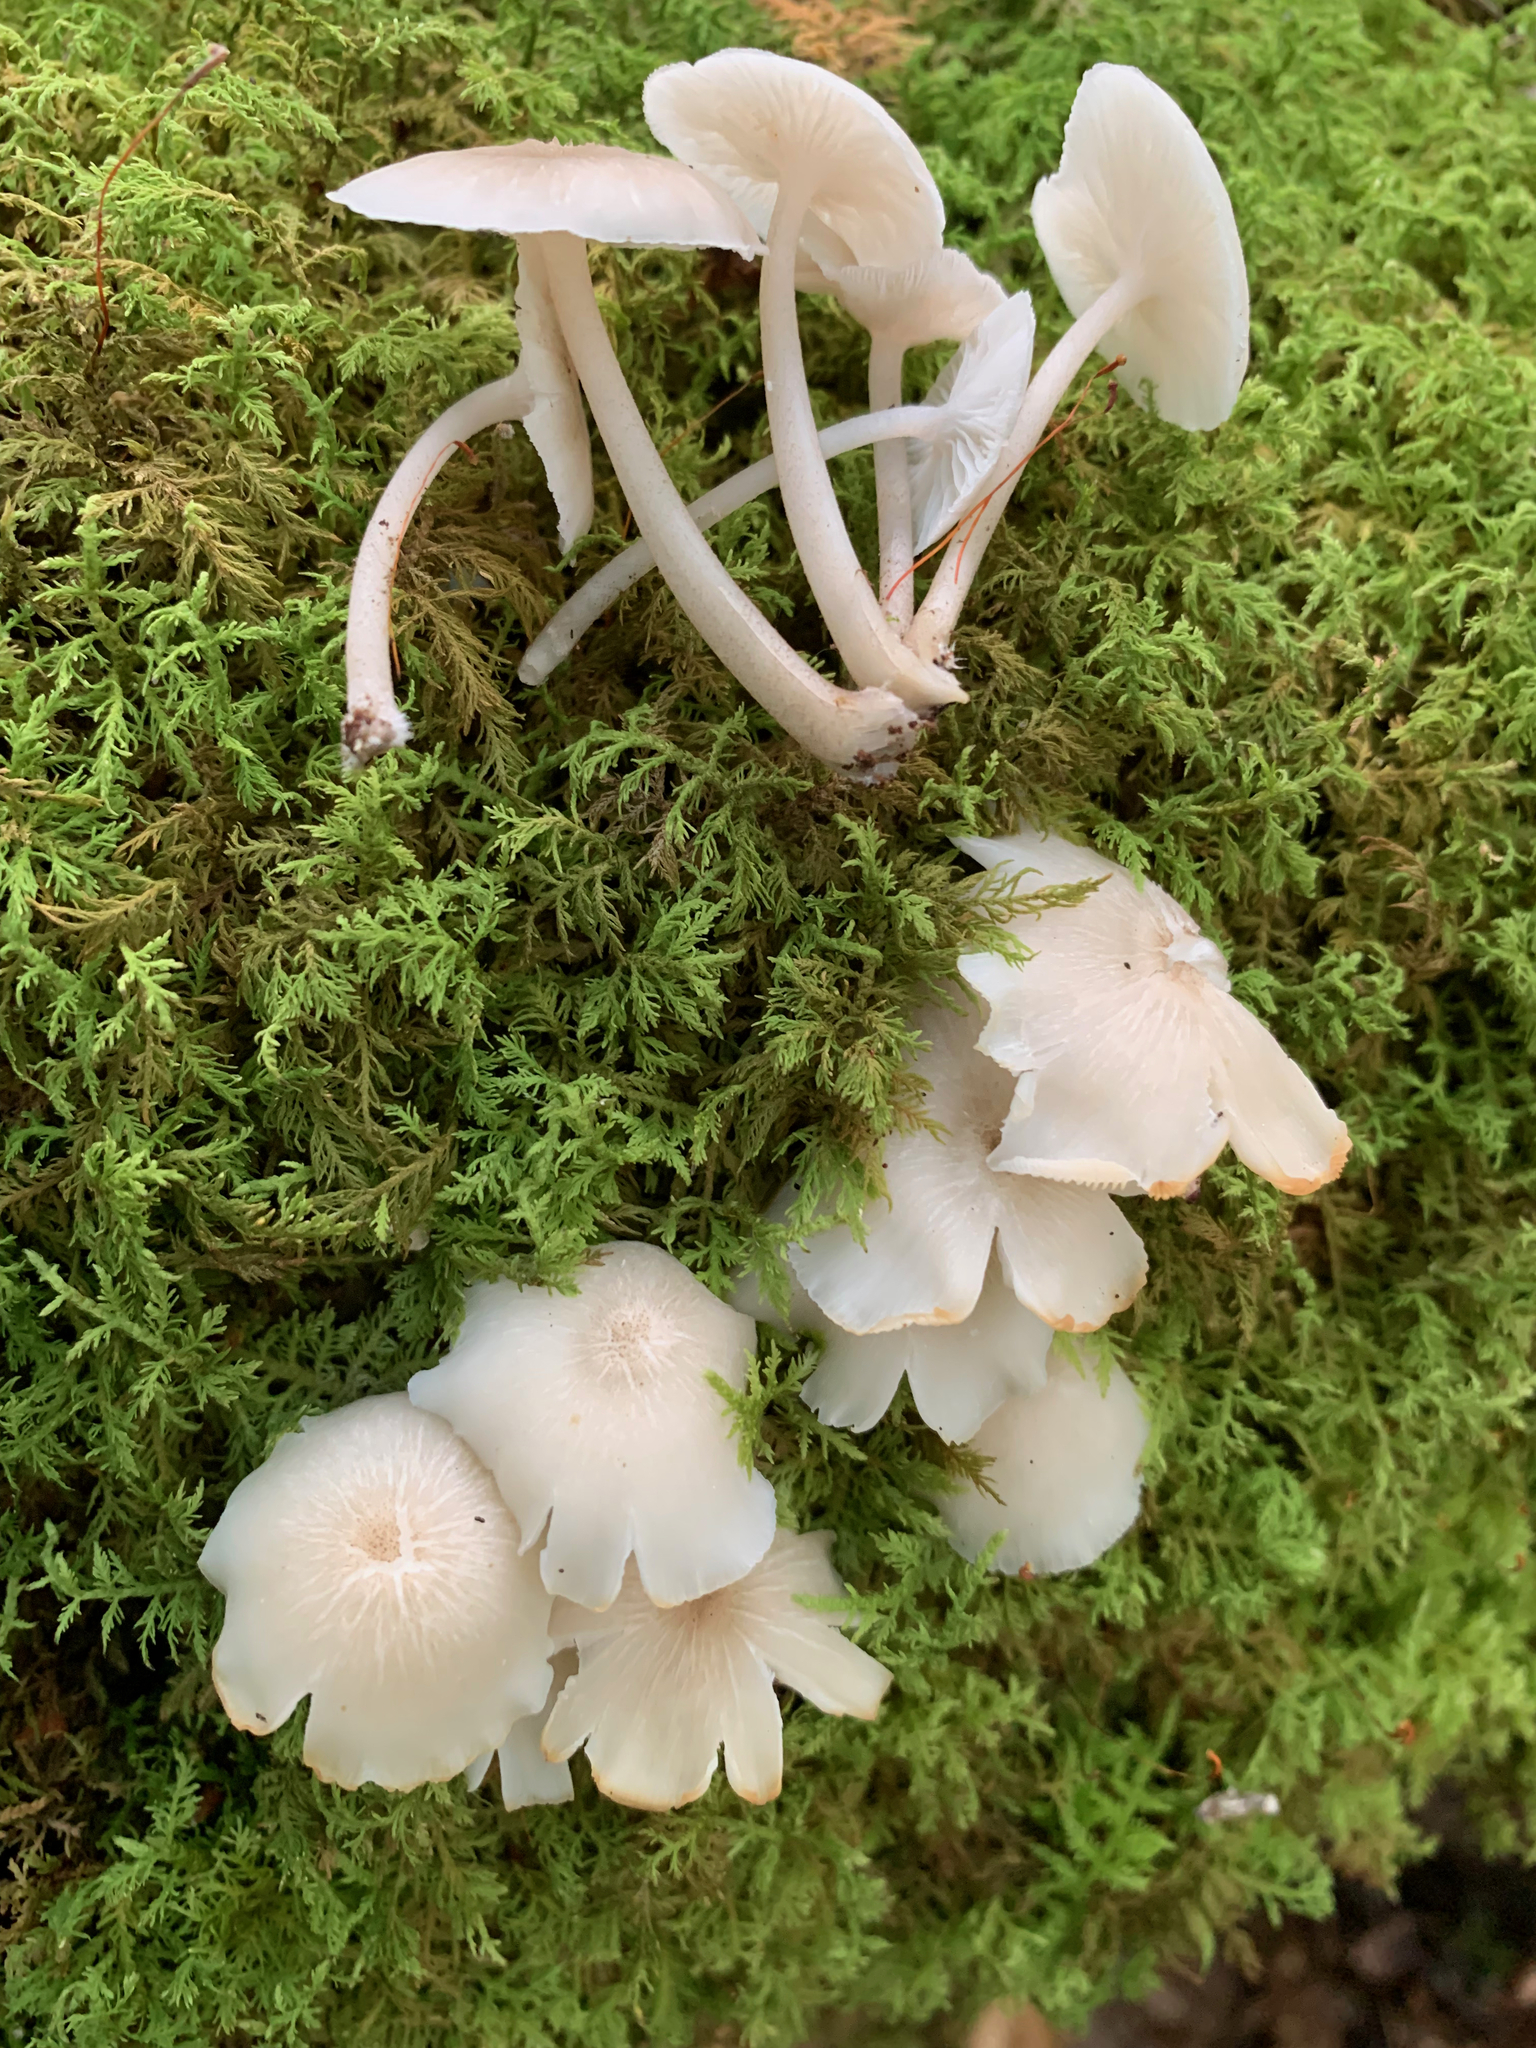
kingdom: Fungi
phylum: Basidiomycota
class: Agaricomycetes
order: Agaricales
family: Marasmiaceae
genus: Clitocybula
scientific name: Clitocybula oculus
